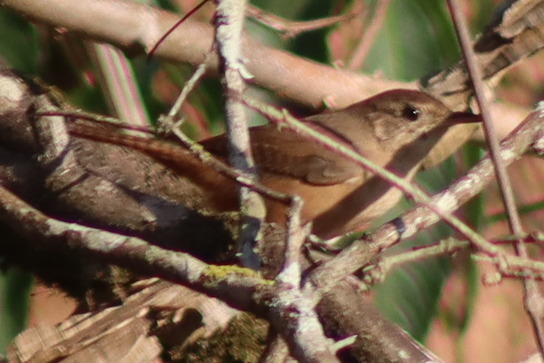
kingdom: Animalia
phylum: Chordata
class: Aves
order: Passeriformes
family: Troglodytidae
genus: Troglodytes
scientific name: Troglodytes aedon
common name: House wren
